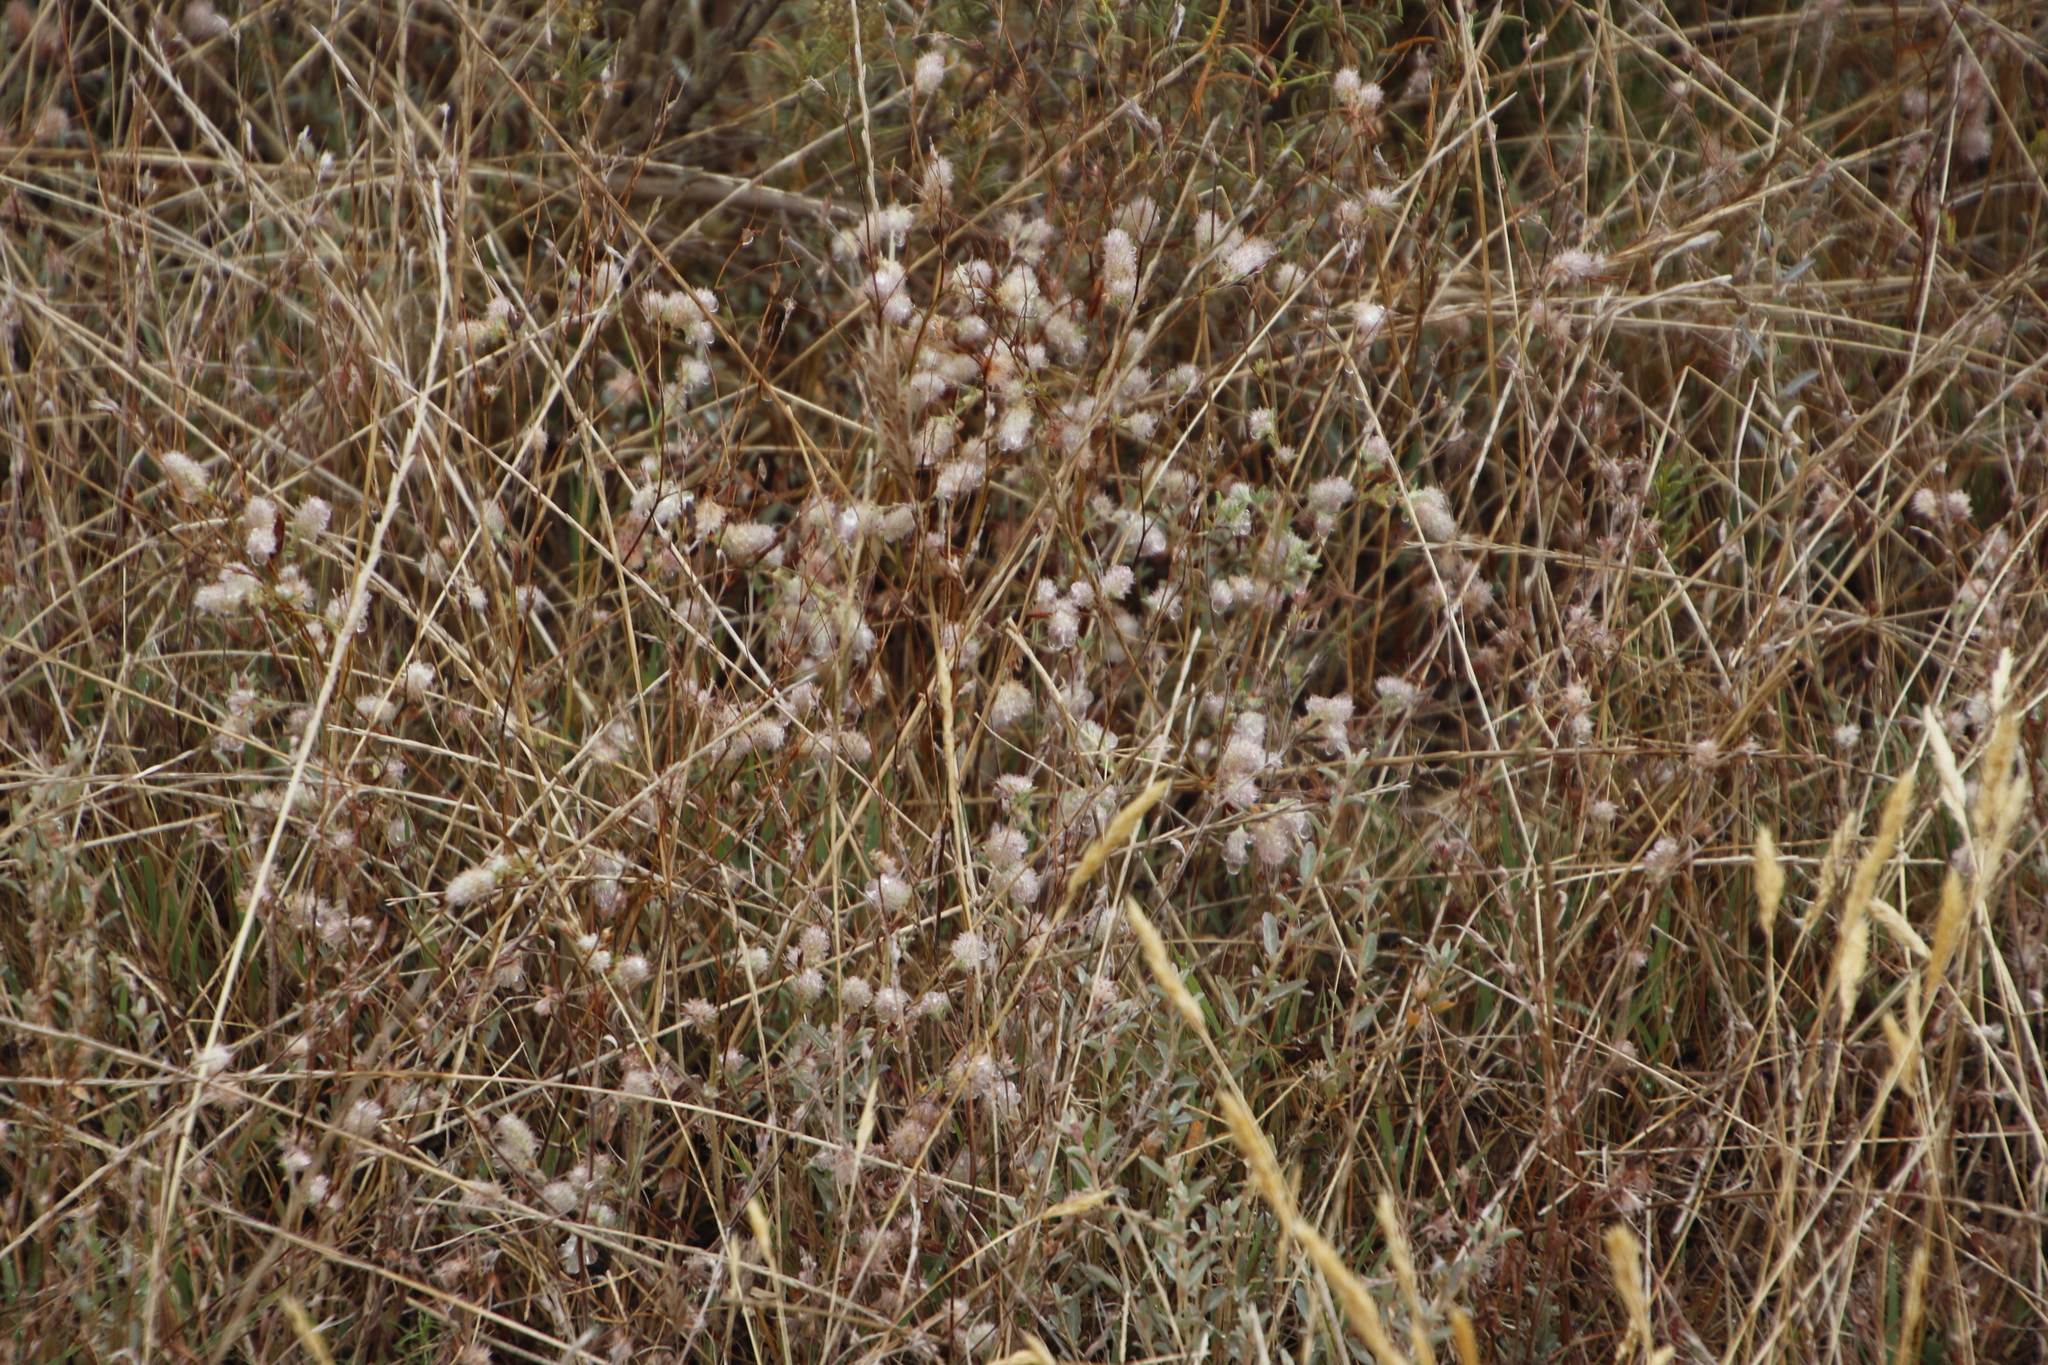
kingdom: Plantae
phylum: Tracheophyta
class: Magnoliopsida
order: Fabales
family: Fabaceae
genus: Trifolium
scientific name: Trifolium arvense
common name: Hare's-foot clover
